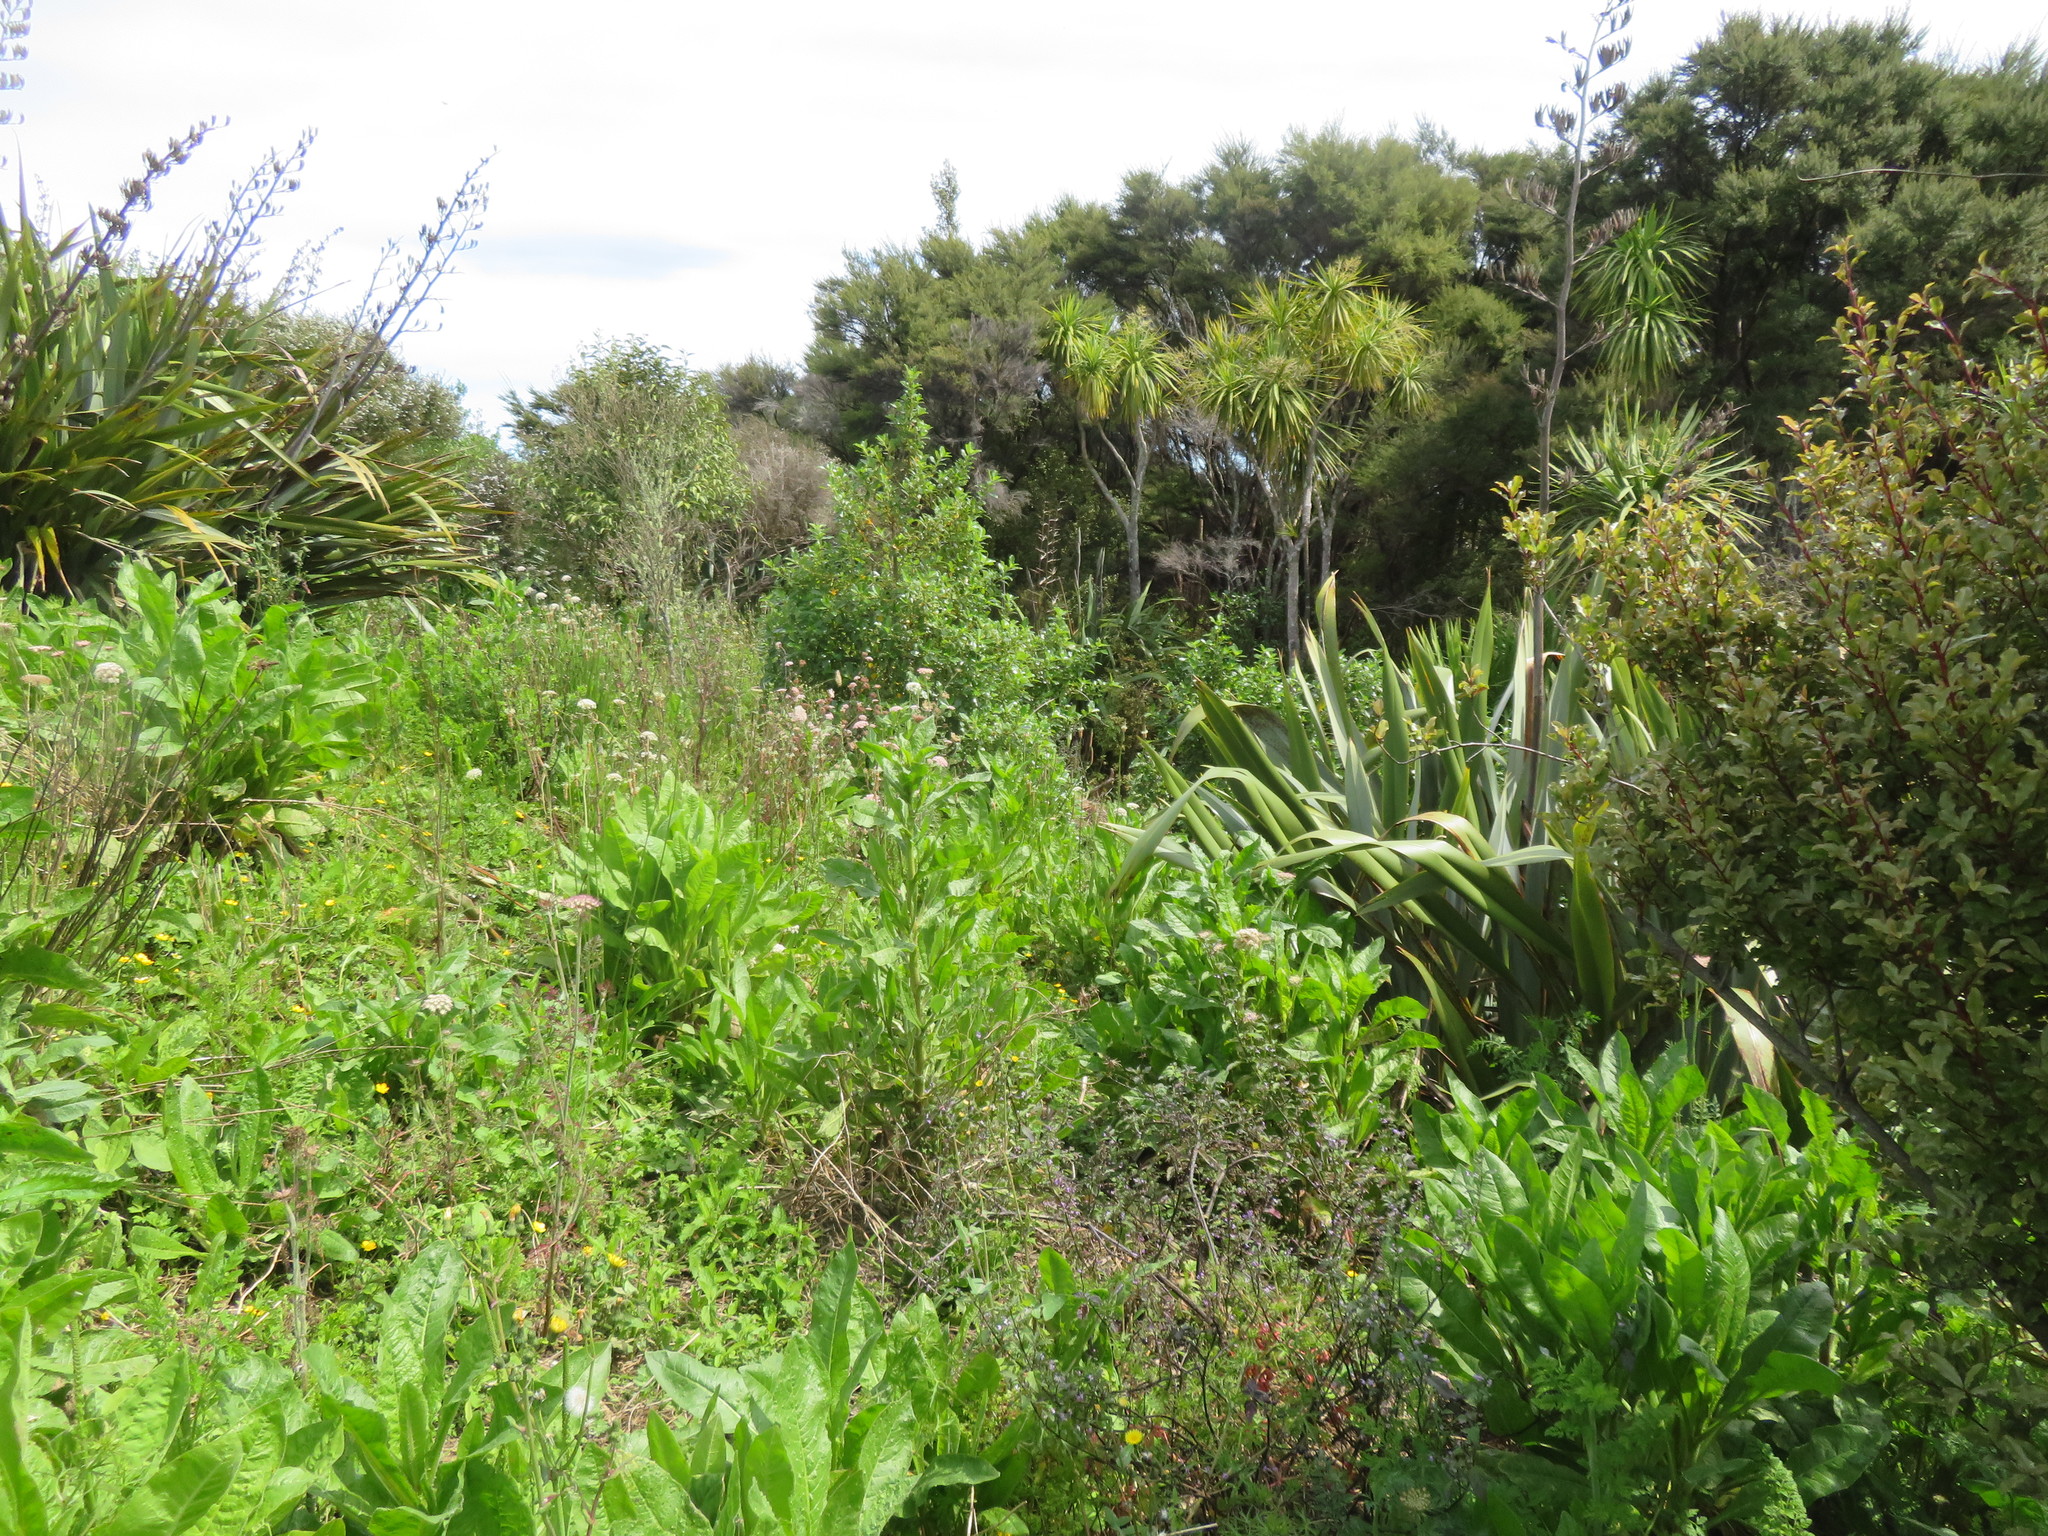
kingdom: Plantae
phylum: Tracheophyta
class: Magnoliopsida
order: Asterales
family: Asteraceae
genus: Helminthotheca
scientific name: Helminthotheca echioides
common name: Ox-tongue
